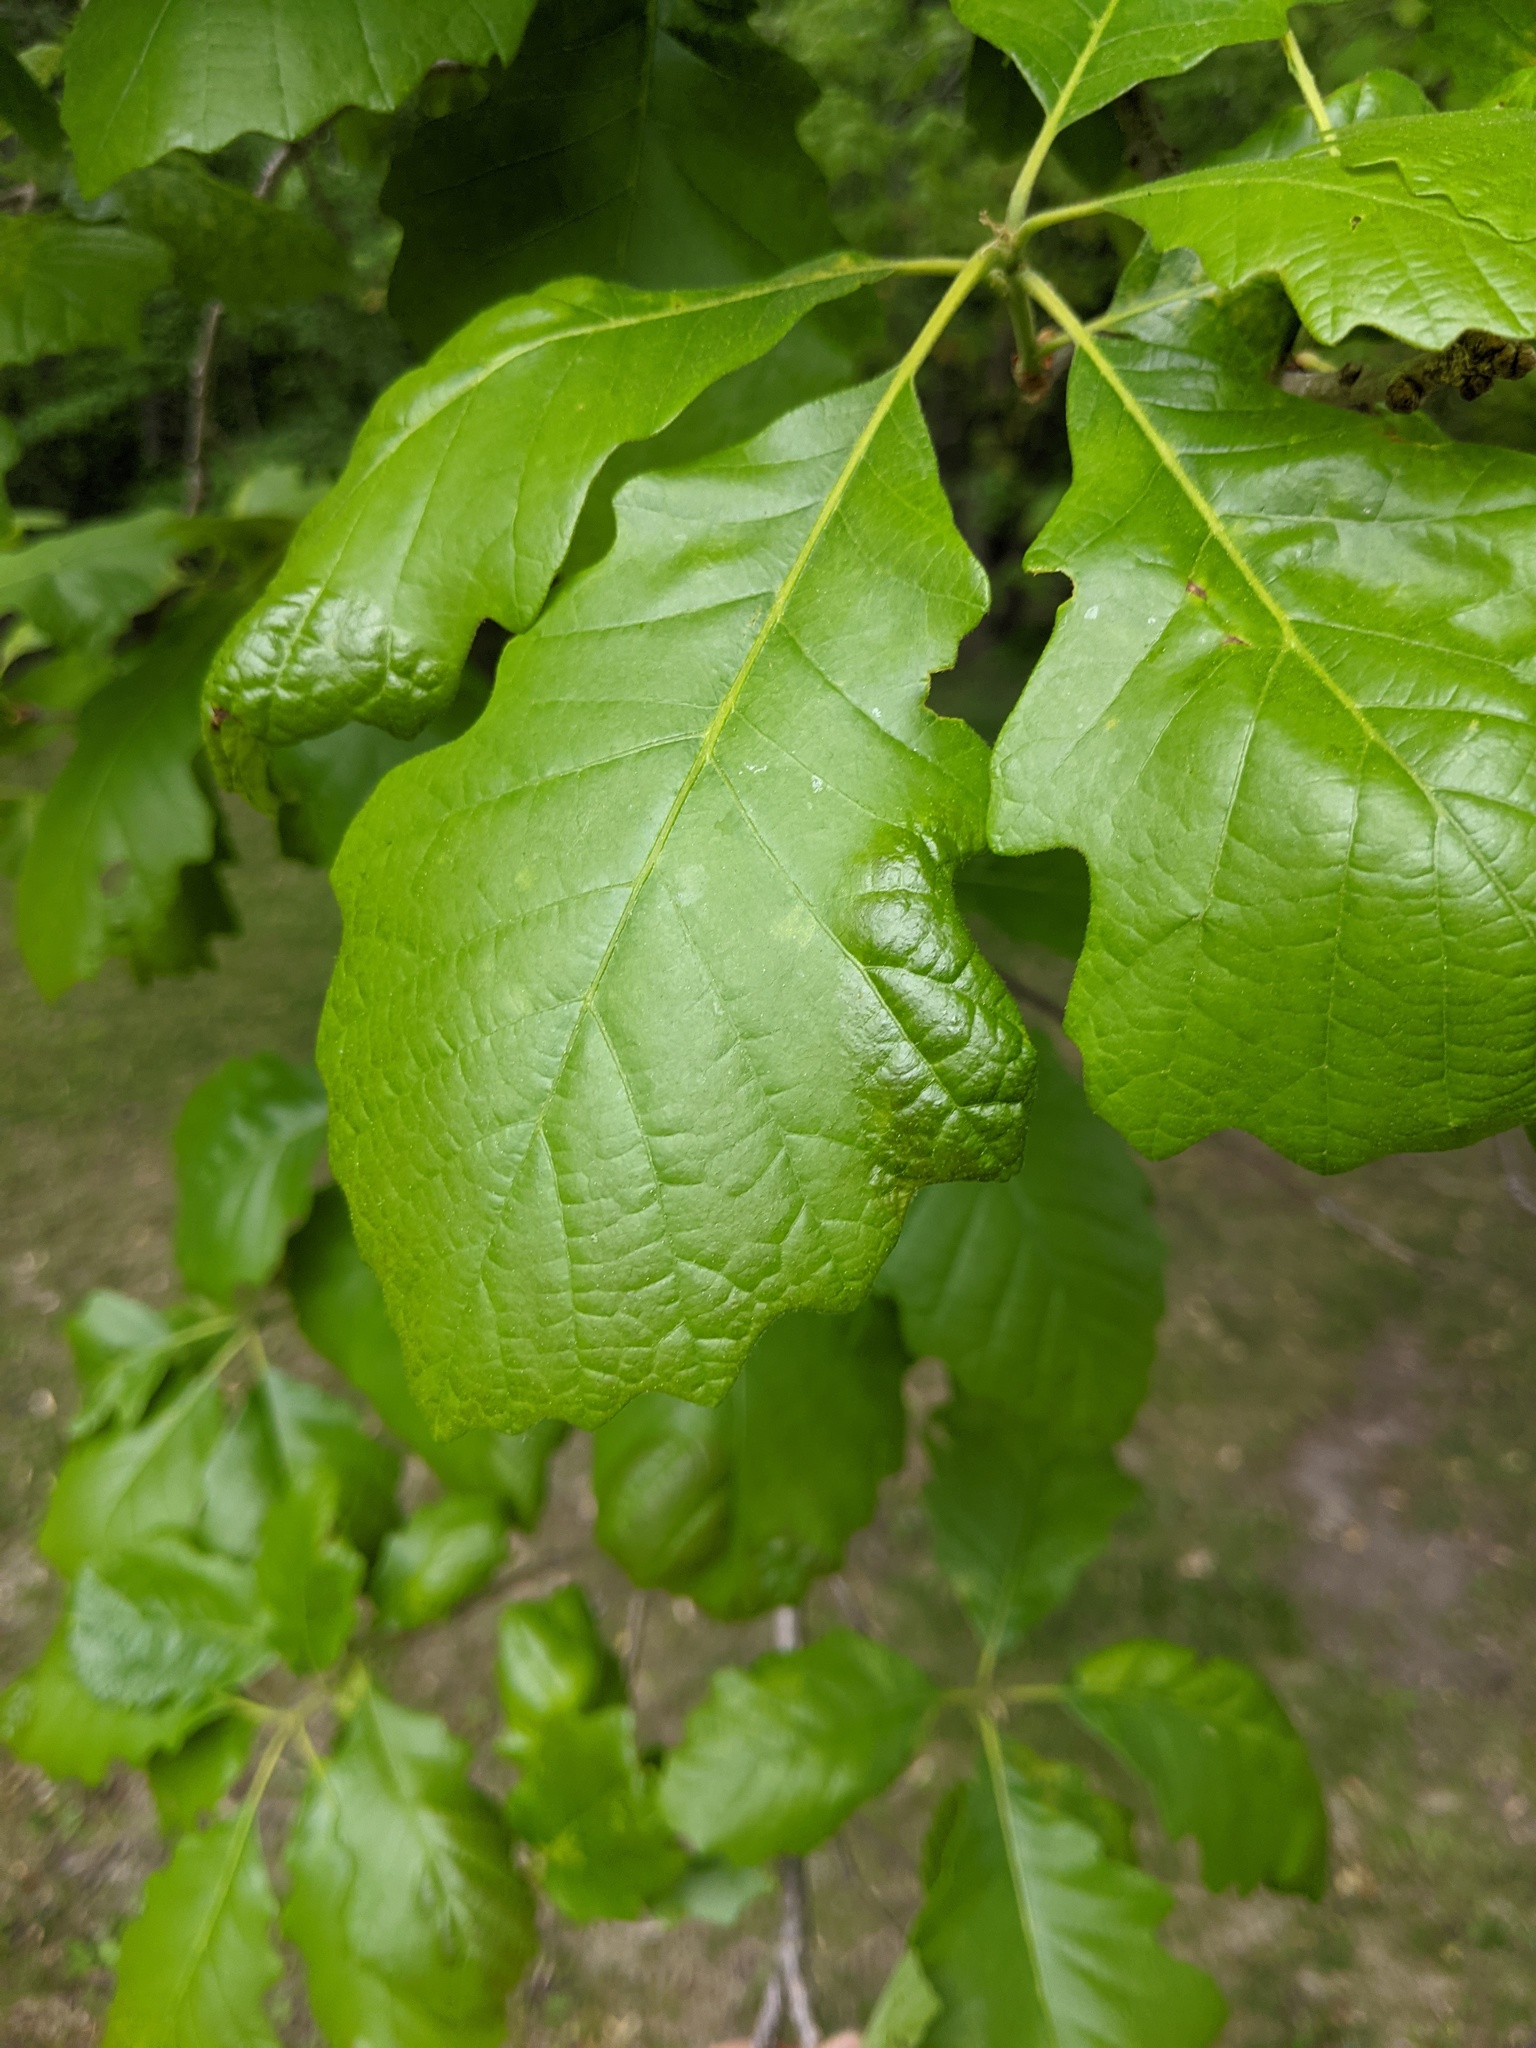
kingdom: Fungi
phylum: Ascomycota
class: Taphrinomycetes
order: Taphrinales
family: Taphrinaceae
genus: Taphrina
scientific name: Taphrina caerulescens
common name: Oak leaf blister
